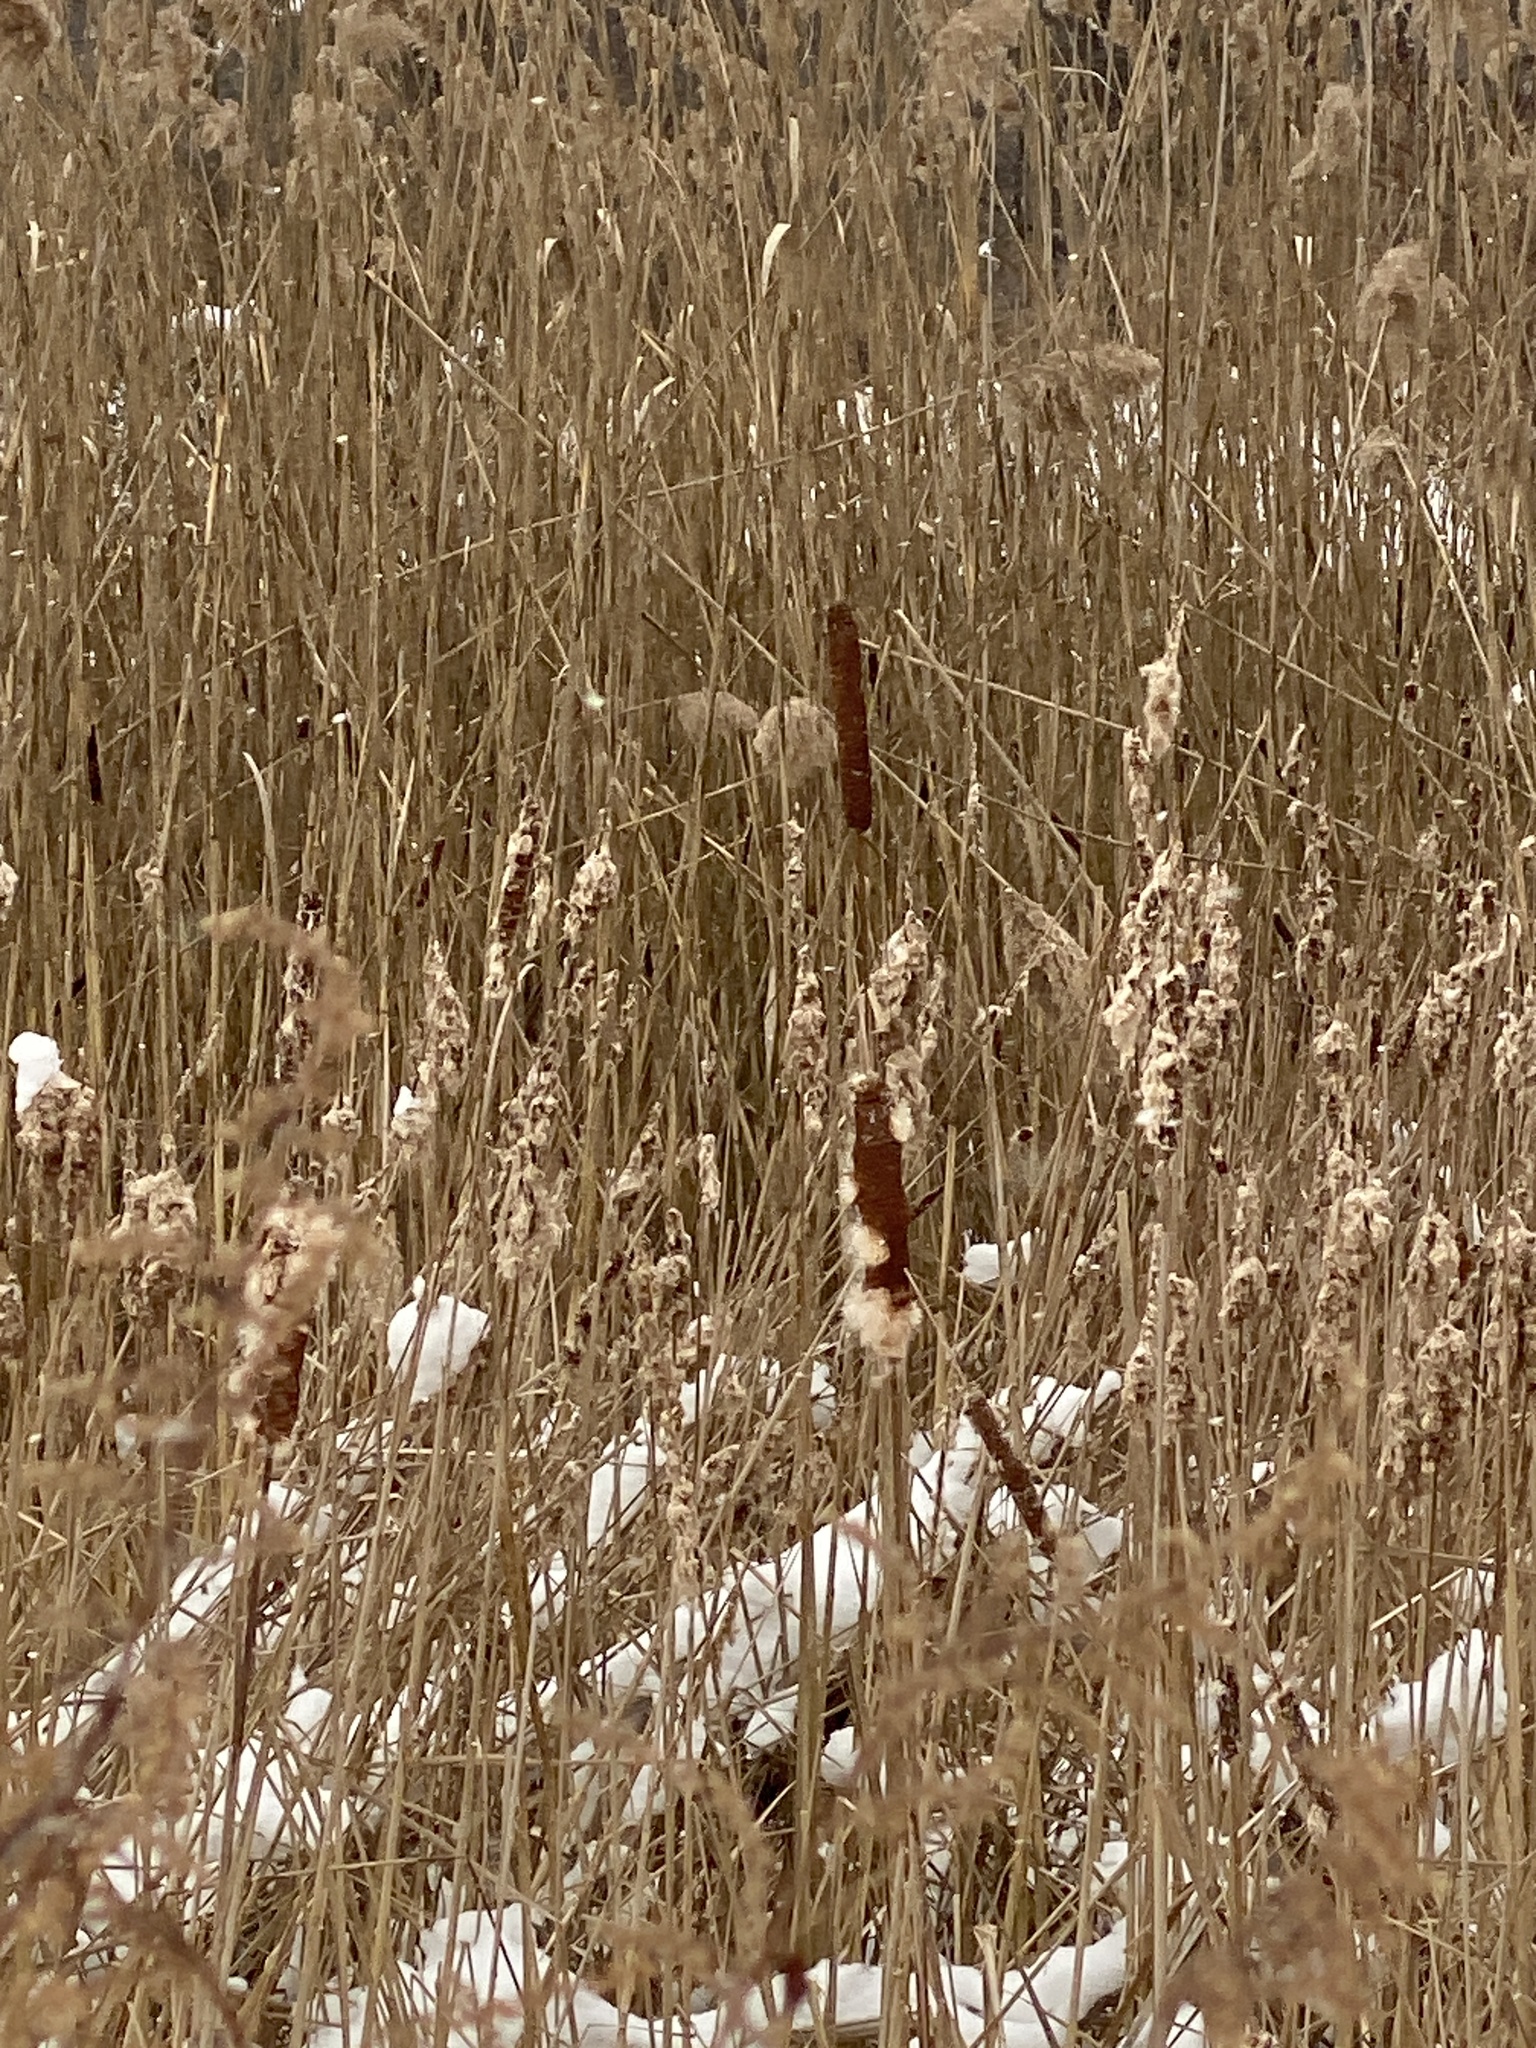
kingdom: Plantae
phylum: Tracheophyta
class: Liliopsida
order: Poales
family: Typhaceae
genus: Typha
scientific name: Typha
